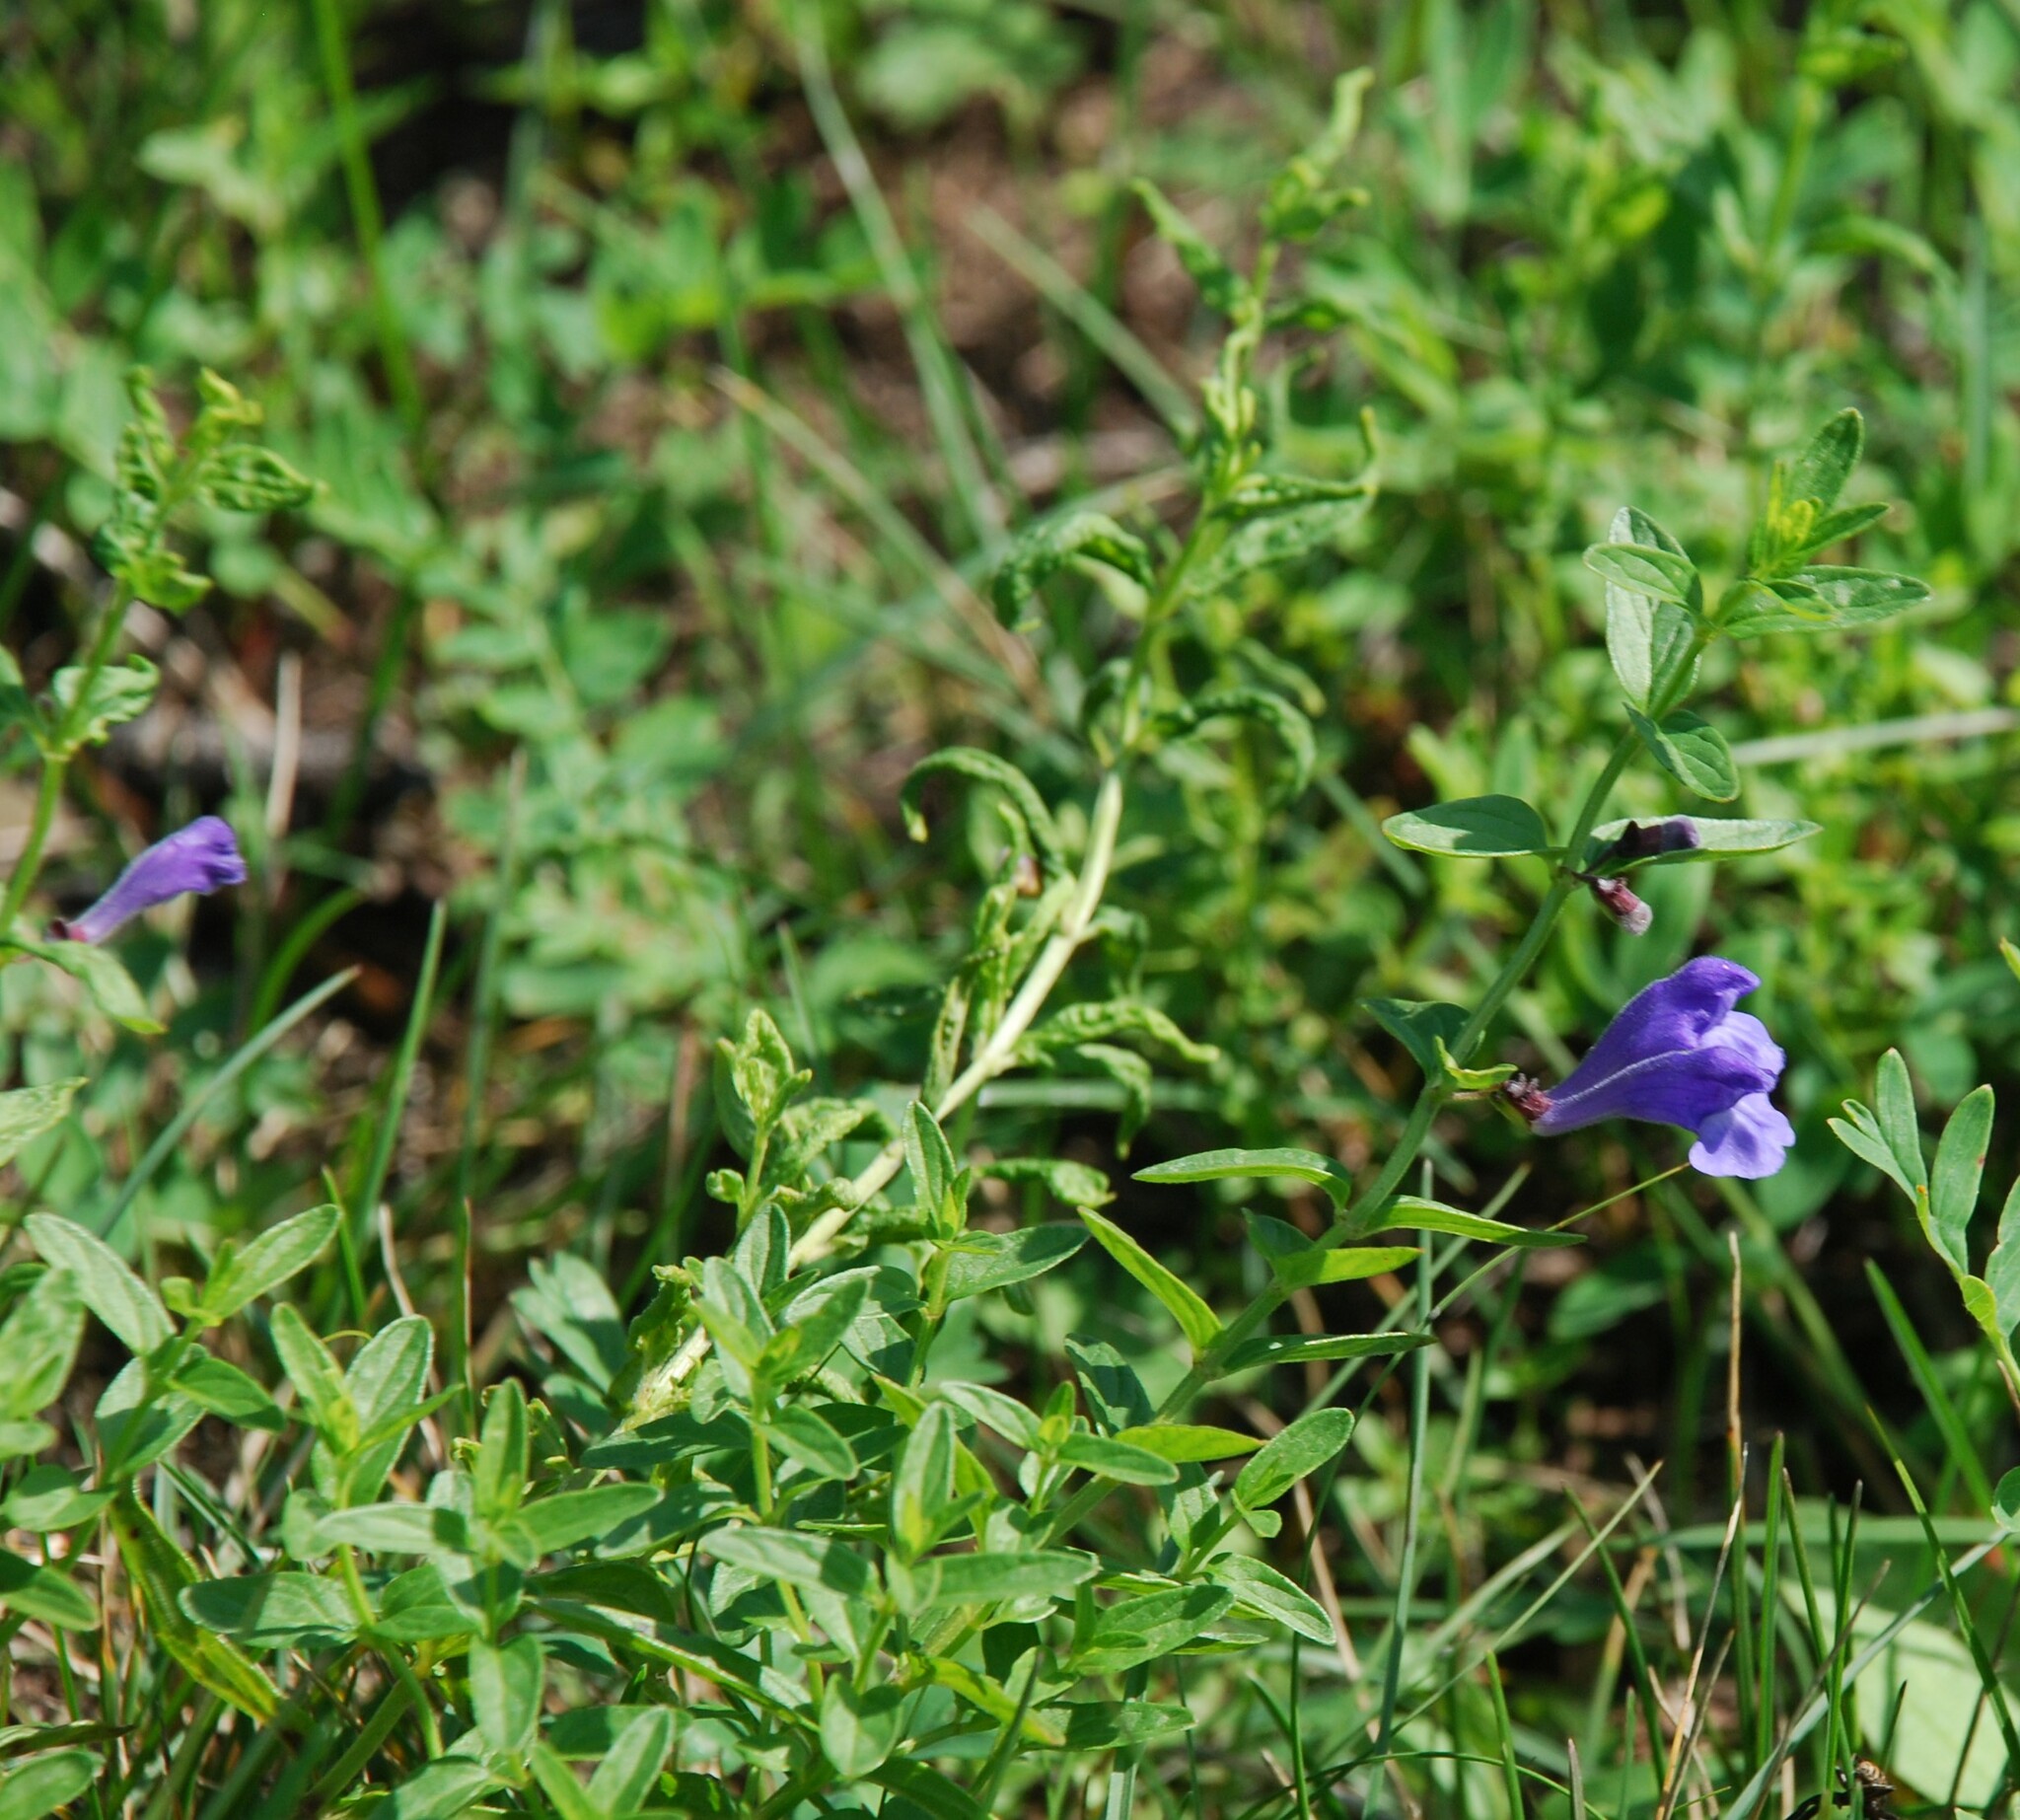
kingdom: Plantae
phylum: Tracheophyta
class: Magnoliopsida
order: Lamiales
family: Lamiaceae
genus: Scutellaria
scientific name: Scutellaria scordiifolia
